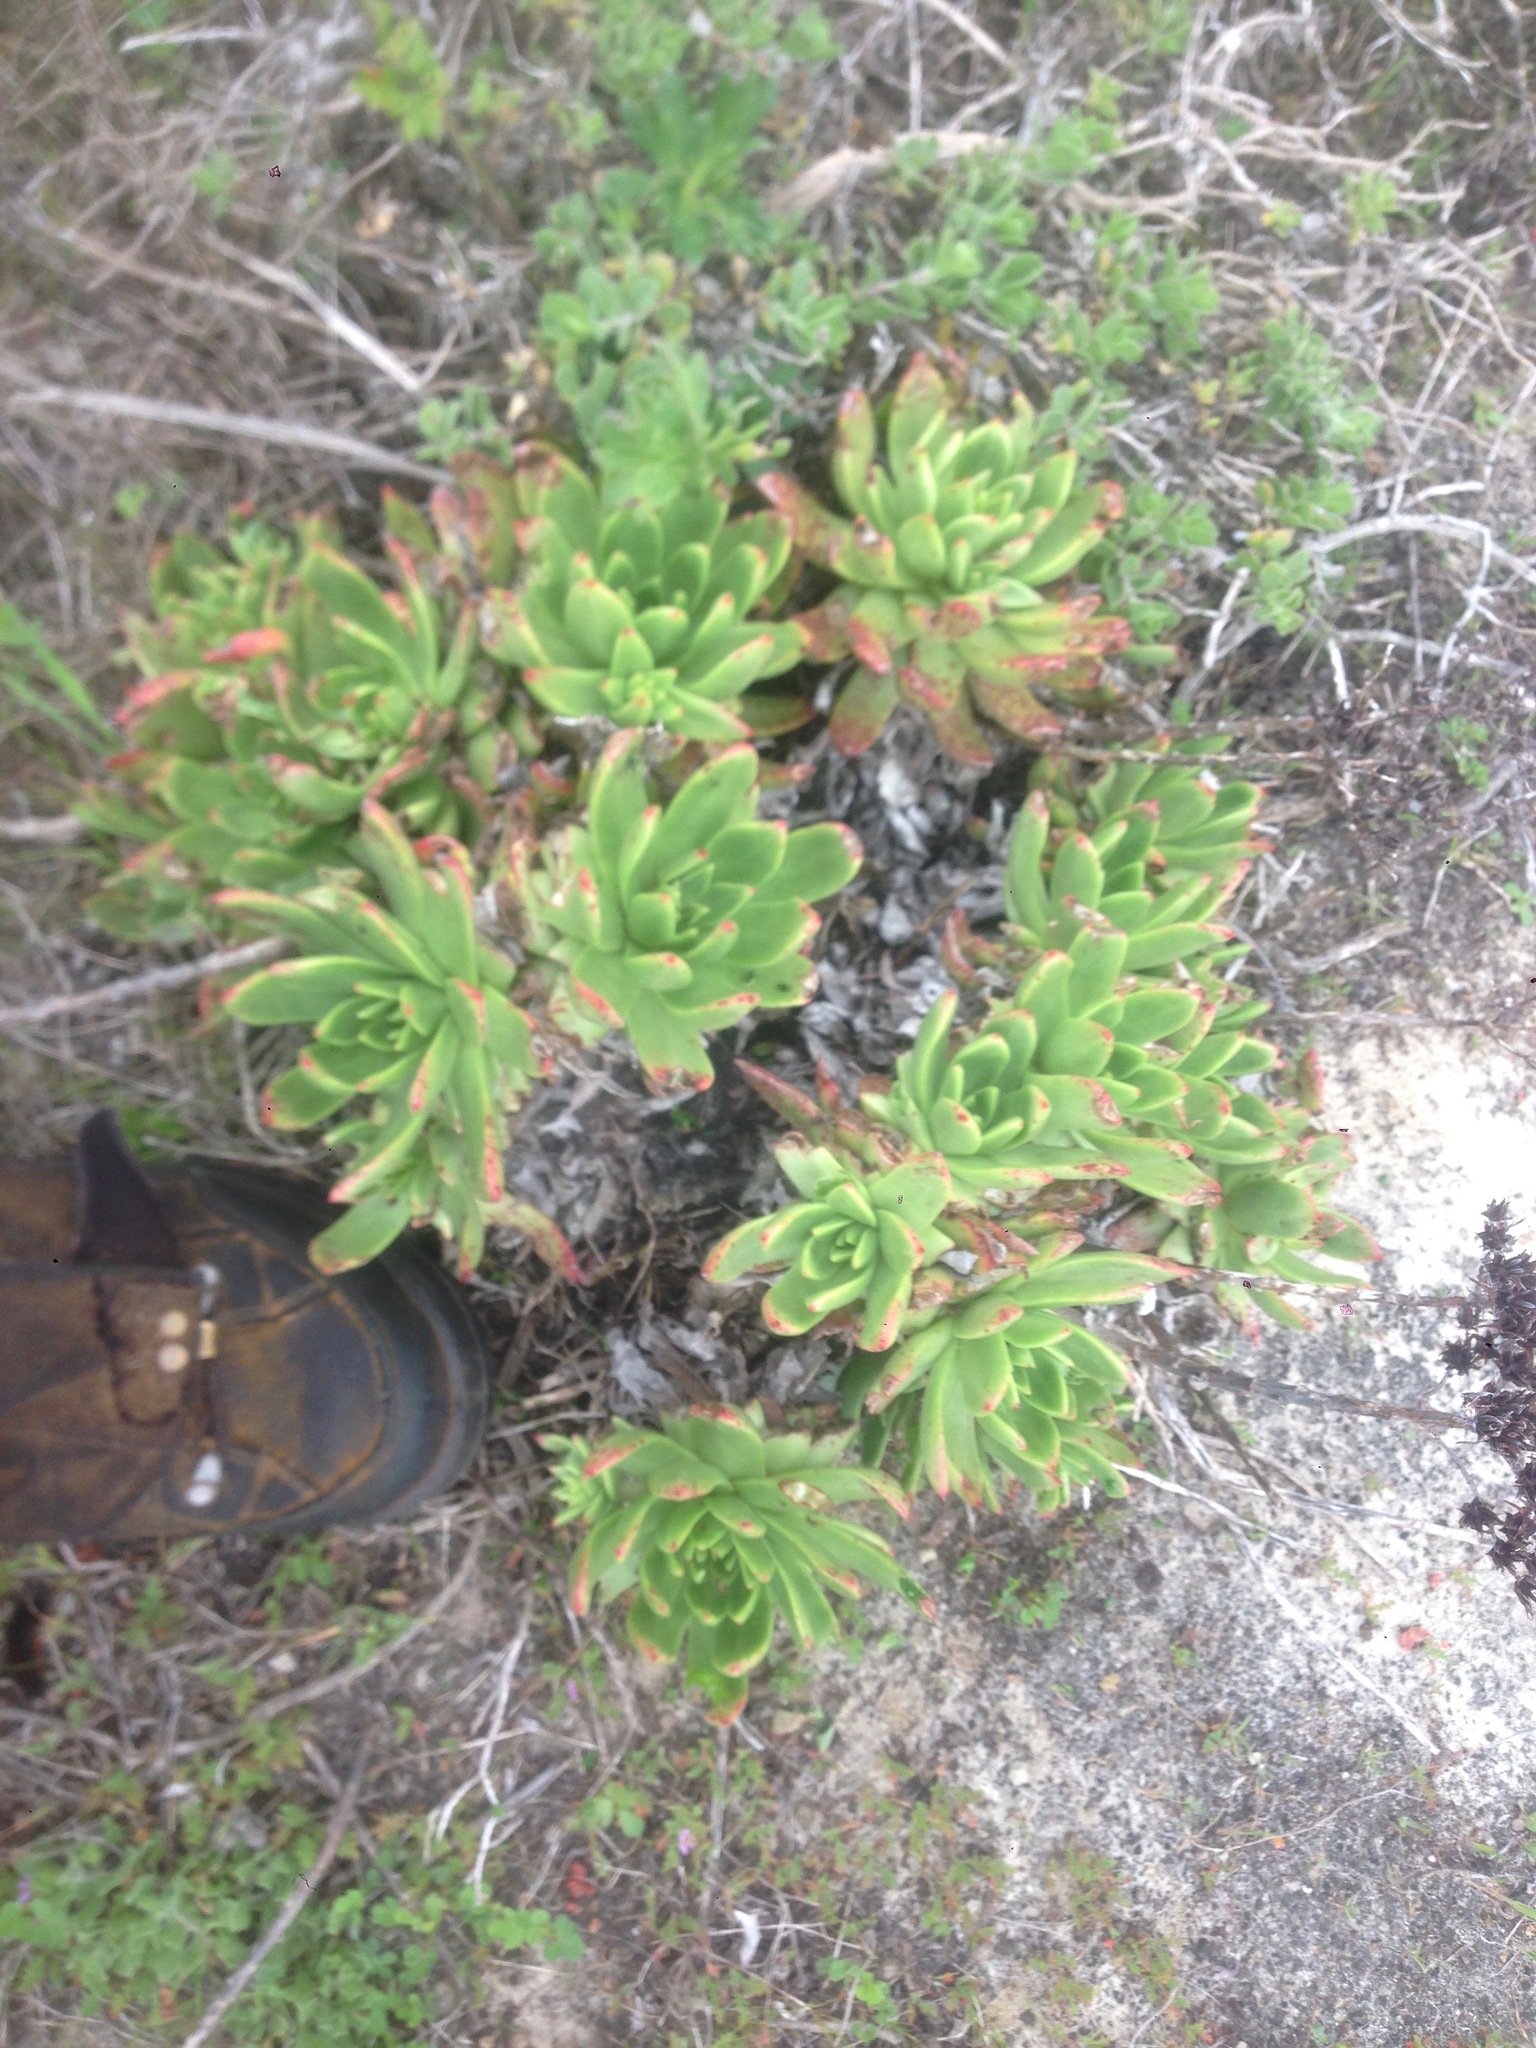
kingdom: Plantae
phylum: Tracheophyta
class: Magnoliopsida
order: Saxifragales
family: Crassulaceae
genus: Dudleya
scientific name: Dudleya greenei
